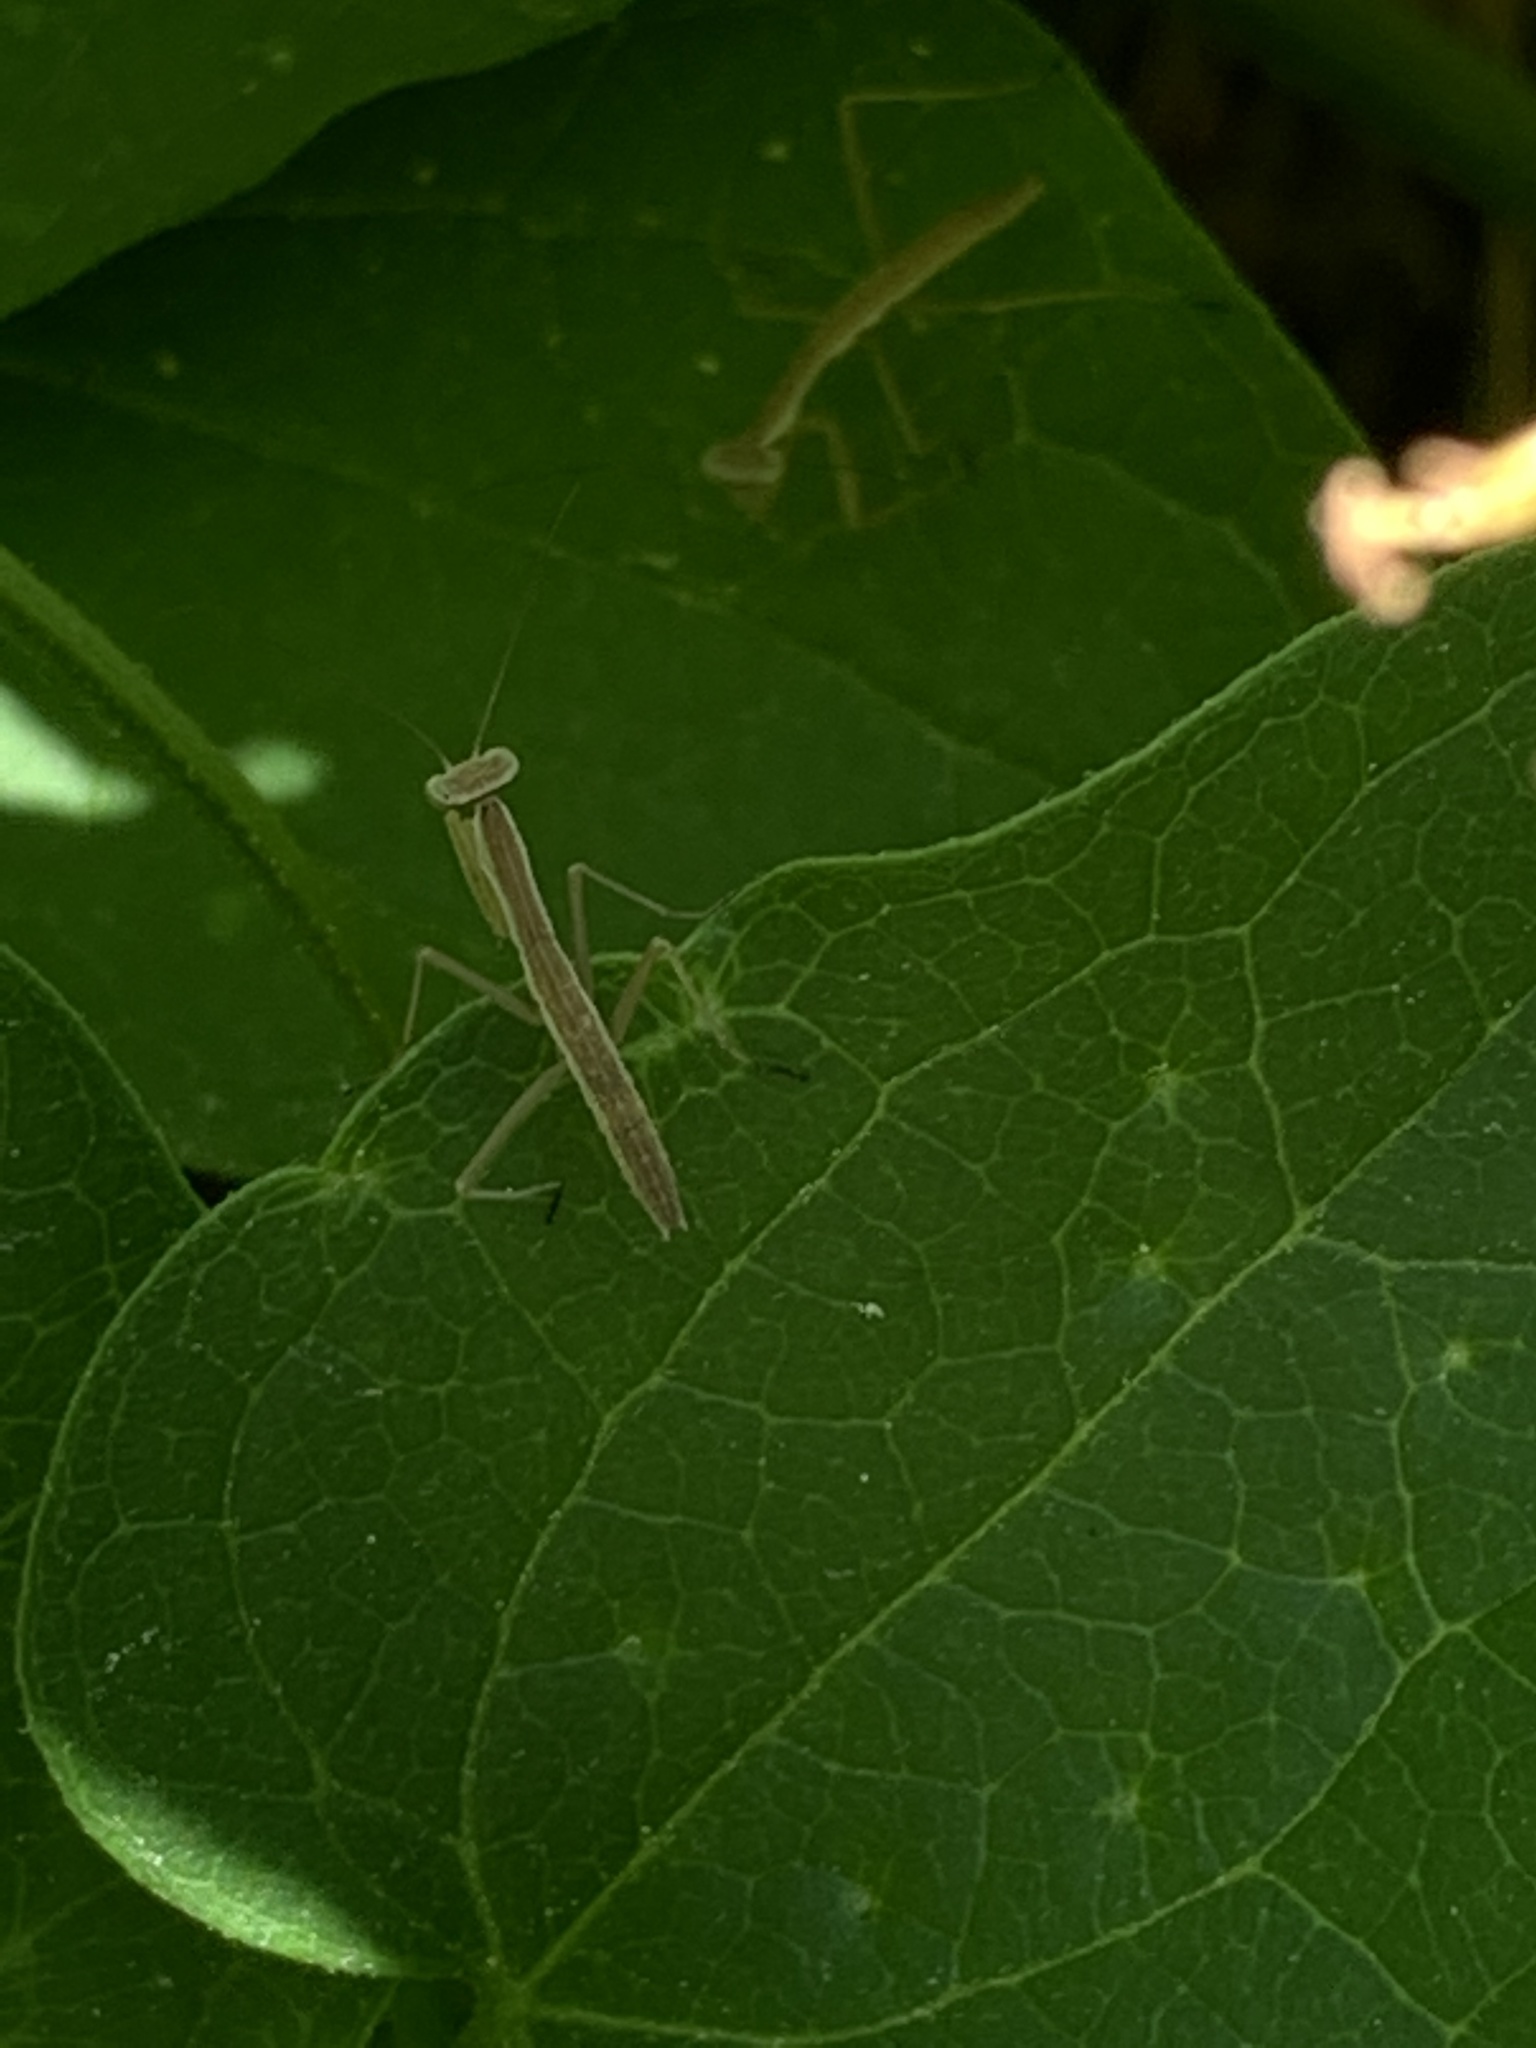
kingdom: Animalia
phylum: Arthropoda
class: Insecta
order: Mantodea
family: Mantidae
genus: Tenodera
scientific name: Tenodera sinensis
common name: Chinese mantis
